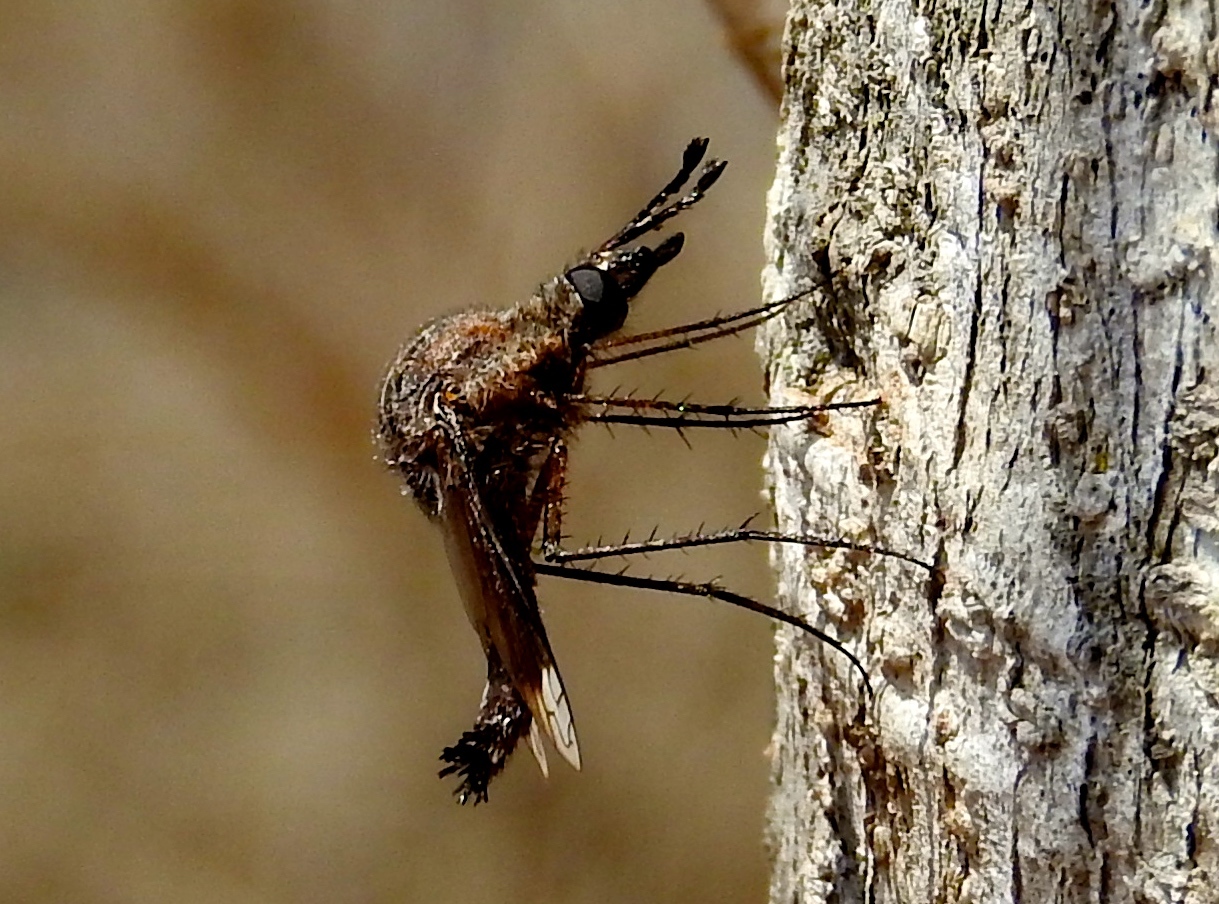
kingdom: Animalia
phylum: Arthropoda
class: Insecta
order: Diptera
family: Bombyliidae
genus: Lepidophora
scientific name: Lepidophora vetusta
